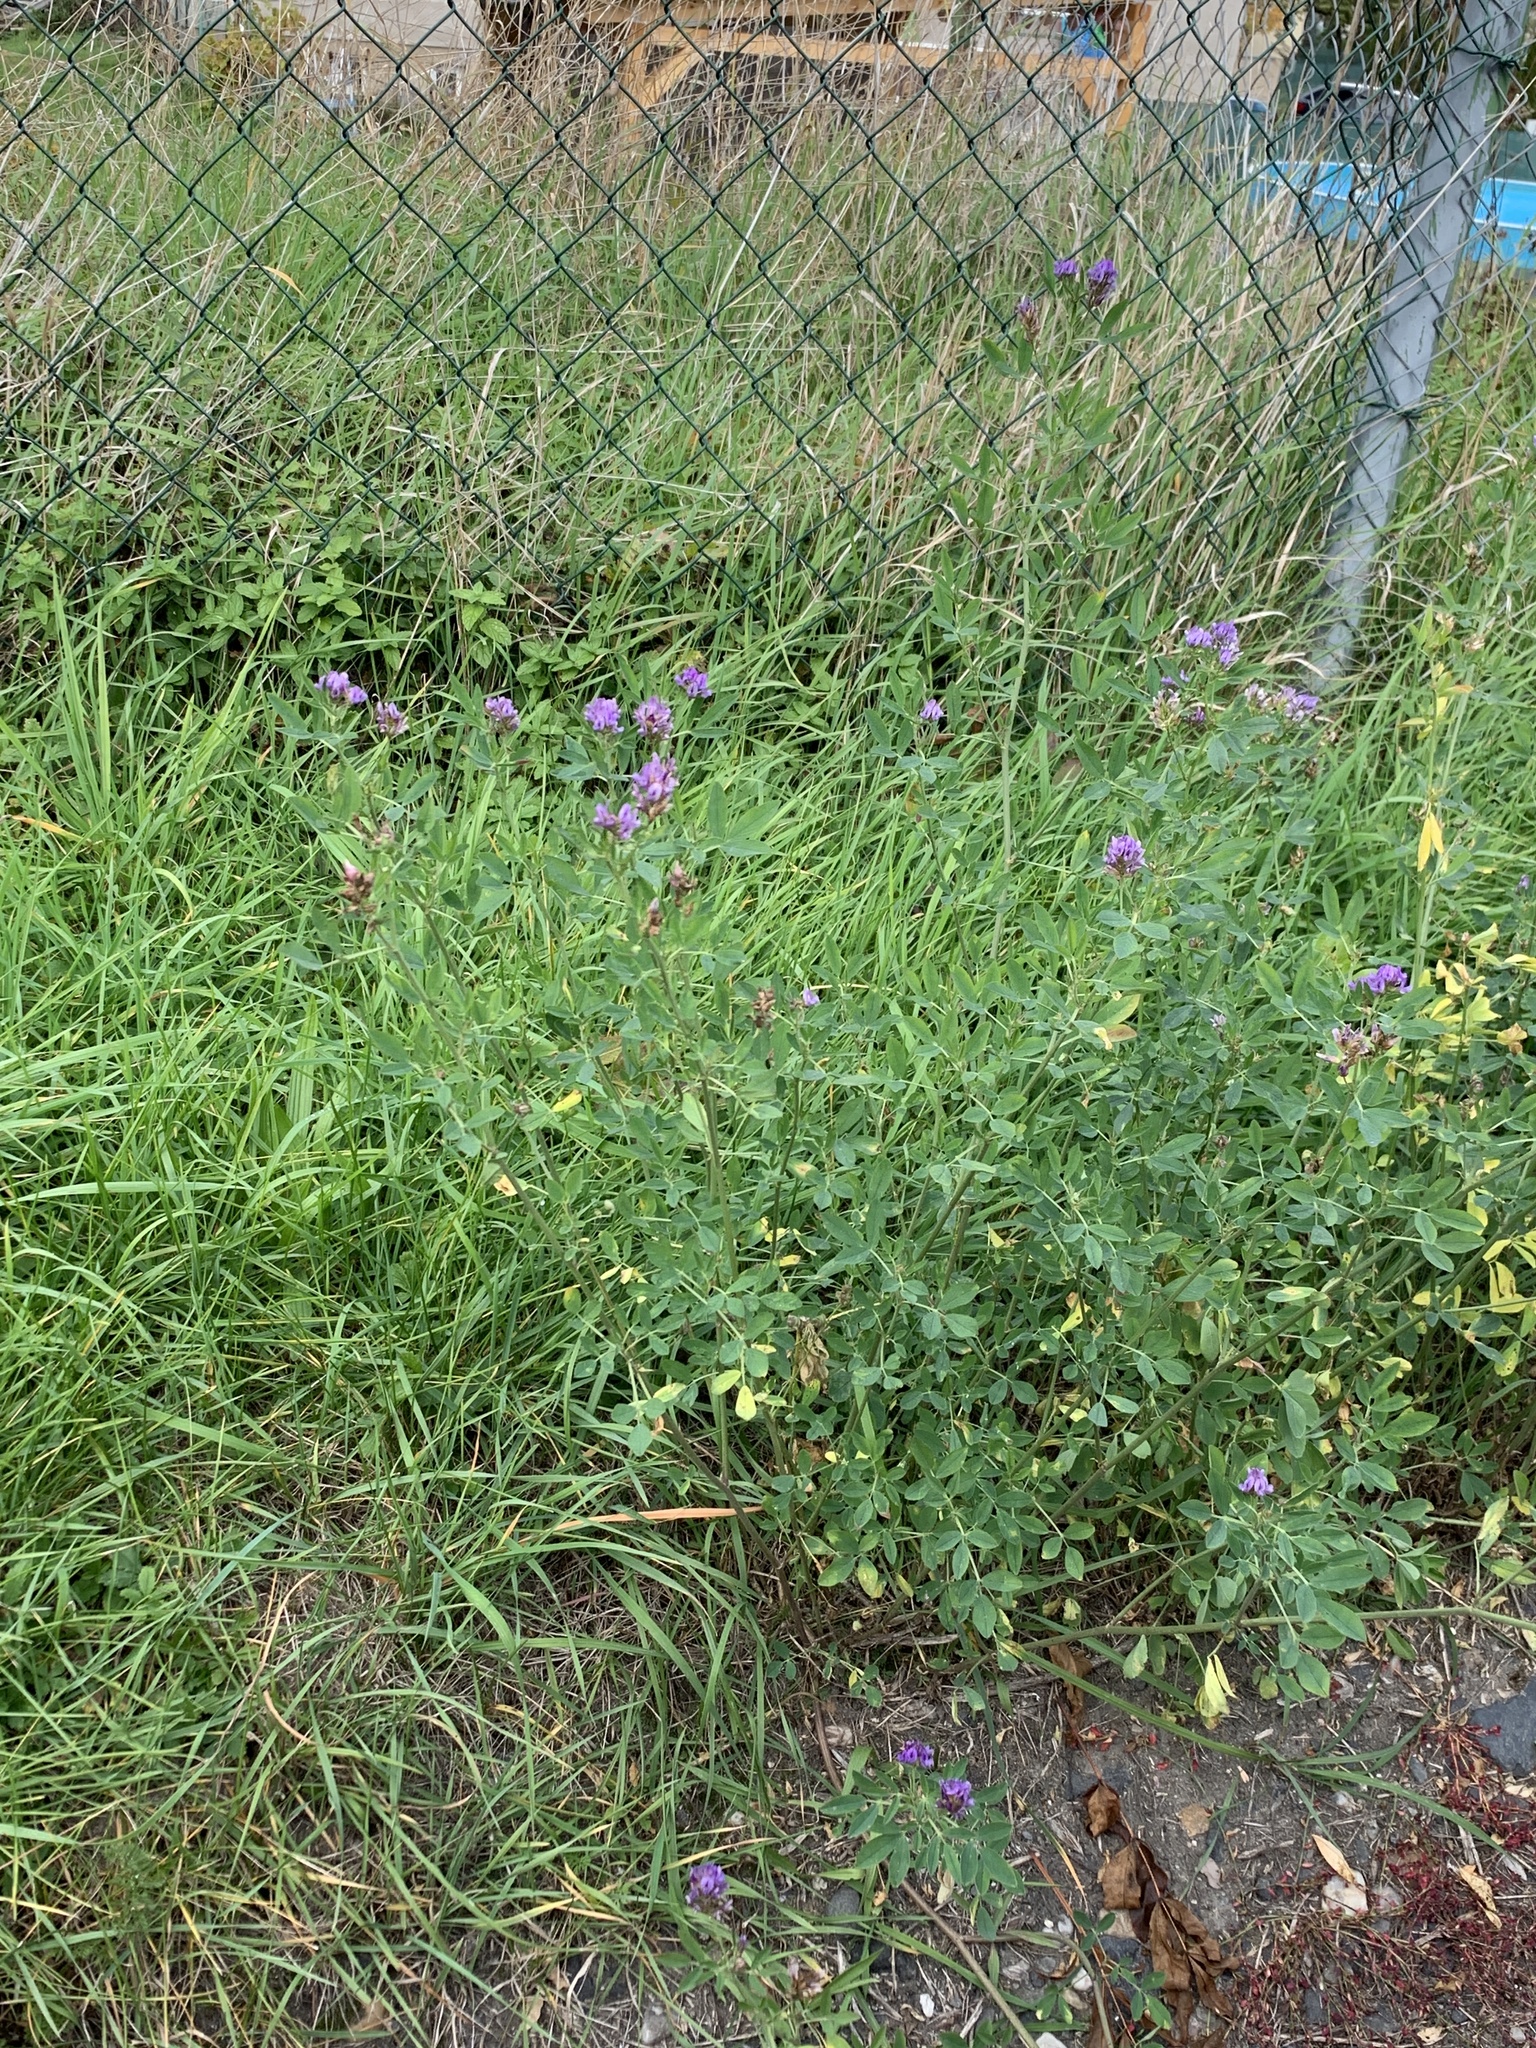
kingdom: Plantae
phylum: Tracheophyta
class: Magnoliopsida
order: Fabales
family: Fabaceae
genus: Medicago
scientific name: Medicago sativa
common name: Alfalfa
